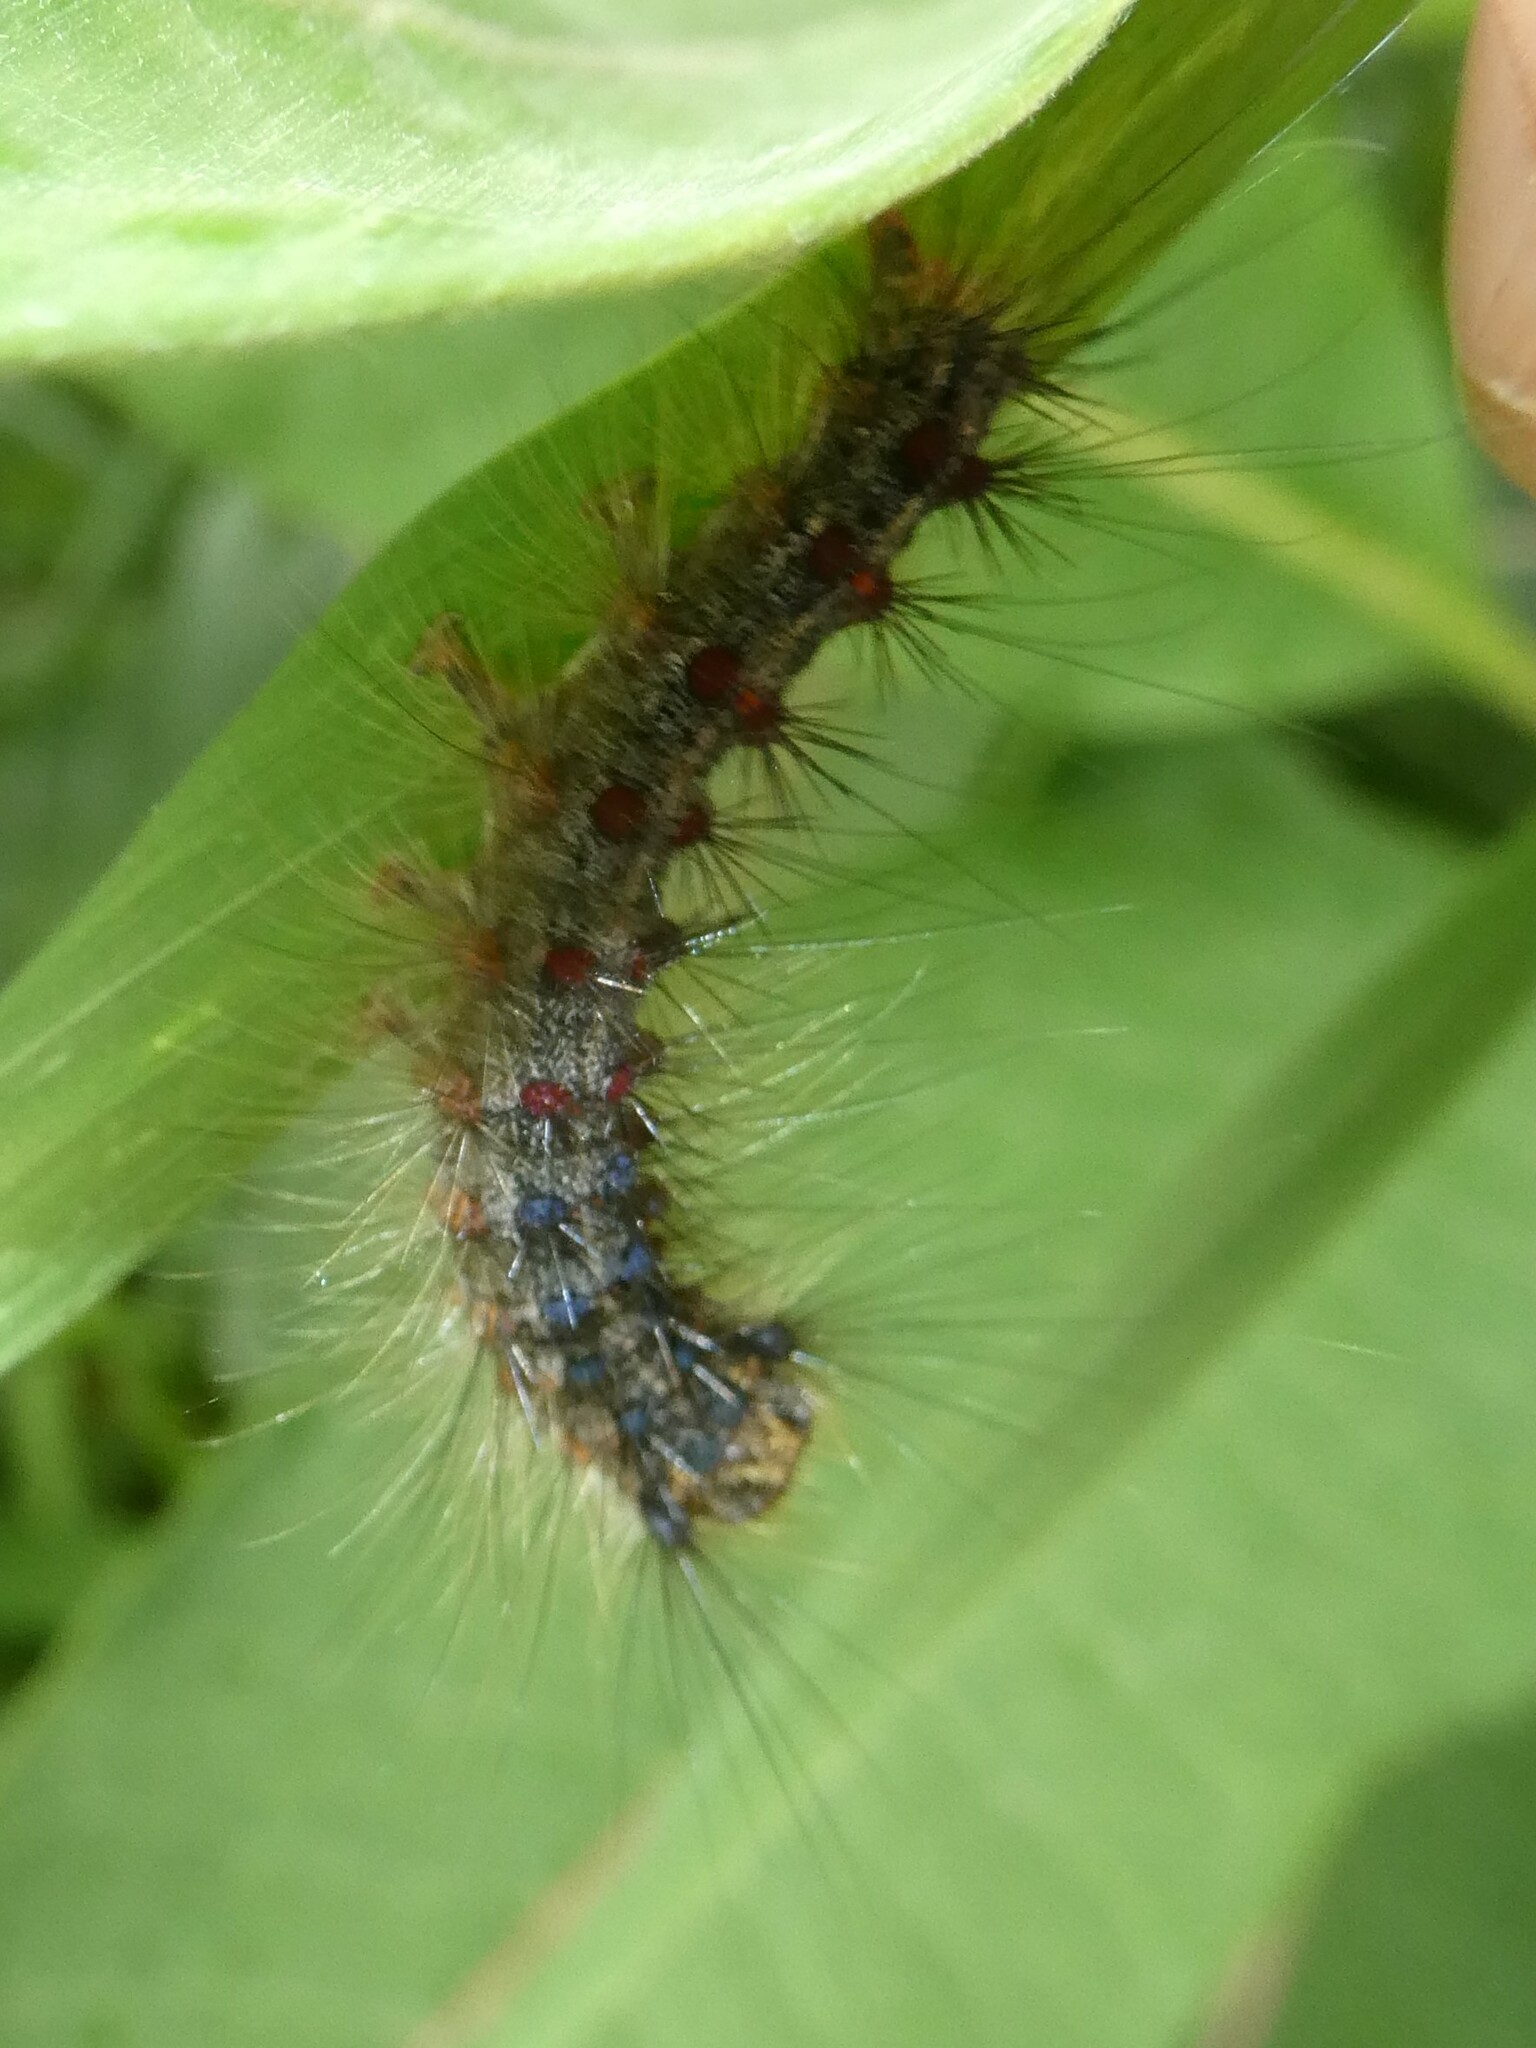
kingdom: Animalia
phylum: Arthropoda
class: Insecta
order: Lepidoptera
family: Erebidae
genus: Lymantria
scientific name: Lymantria dispar
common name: Gypsy moth
